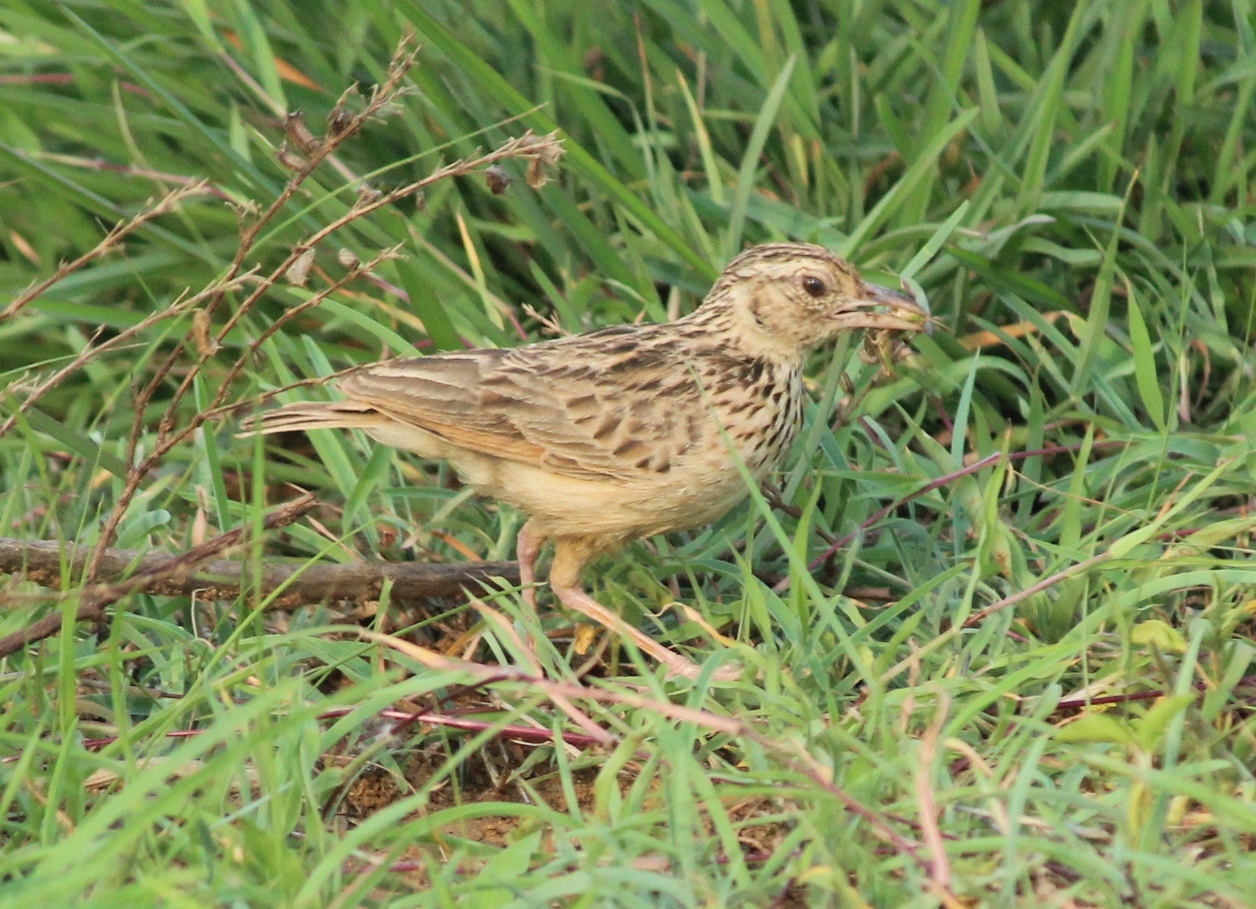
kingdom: Animalia
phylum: Chordata
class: Aves
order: Passeriformes
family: Alaudidae
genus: Alauda
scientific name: Alauda gulgula
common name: Oriental skylark
